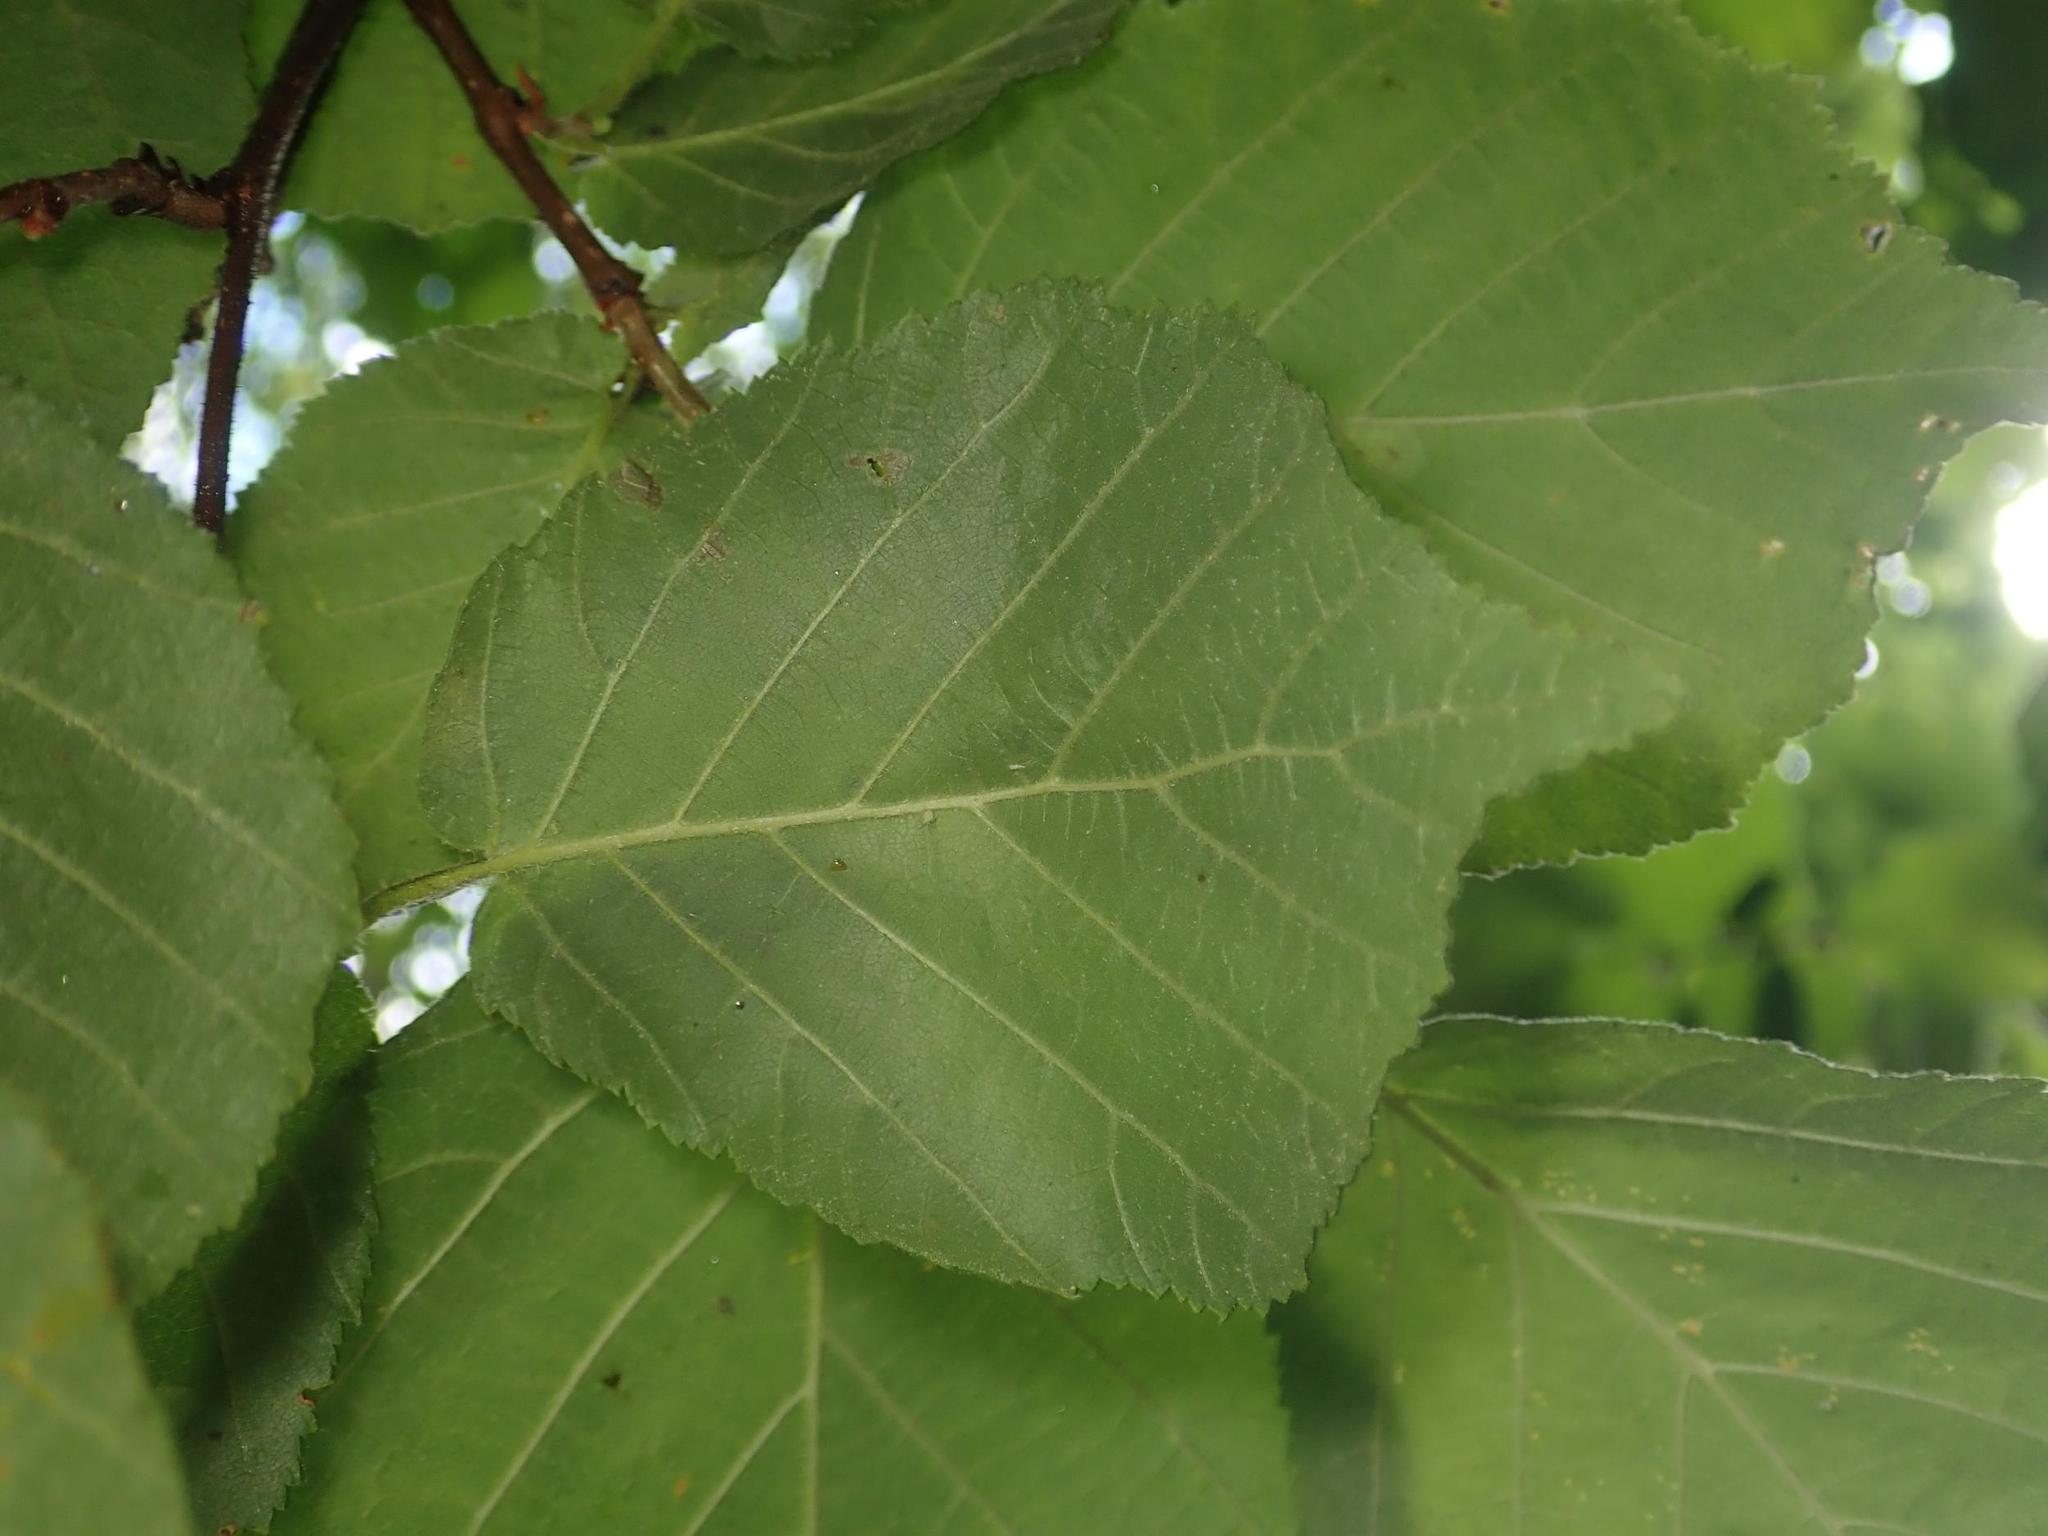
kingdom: Plantae
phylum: Tracheophyta
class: Magnoliopsida
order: Fagales
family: Betulaceae
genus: Corylus
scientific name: Corylus avellana
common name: European hazel
